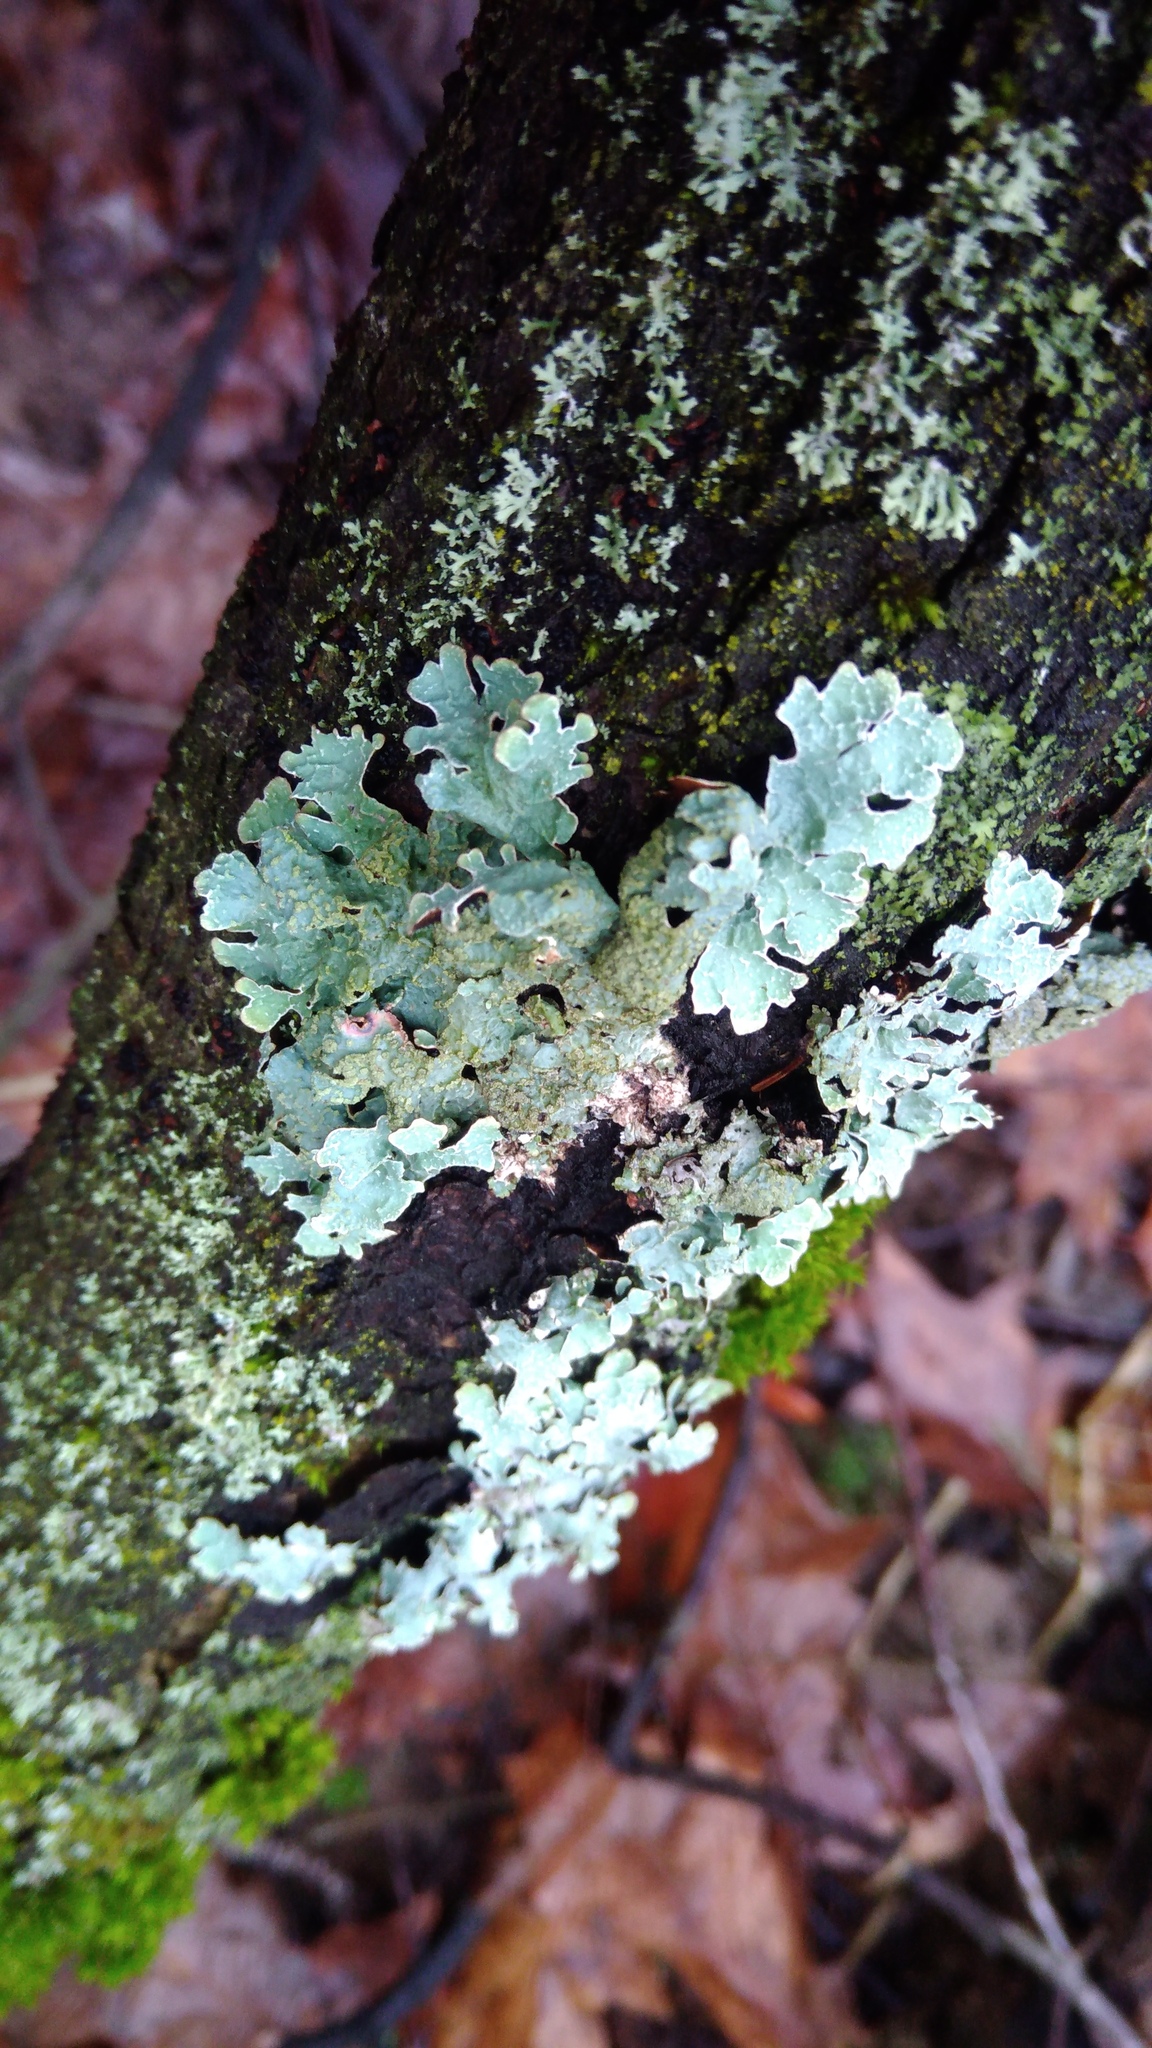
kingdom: Fungi
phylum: Ascomycota
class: Lecanoromycetes
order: Lecanorales
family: Parmeliaceae
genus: Parmelia
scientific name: Parmelia sulcata
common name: Netted shield lichen
